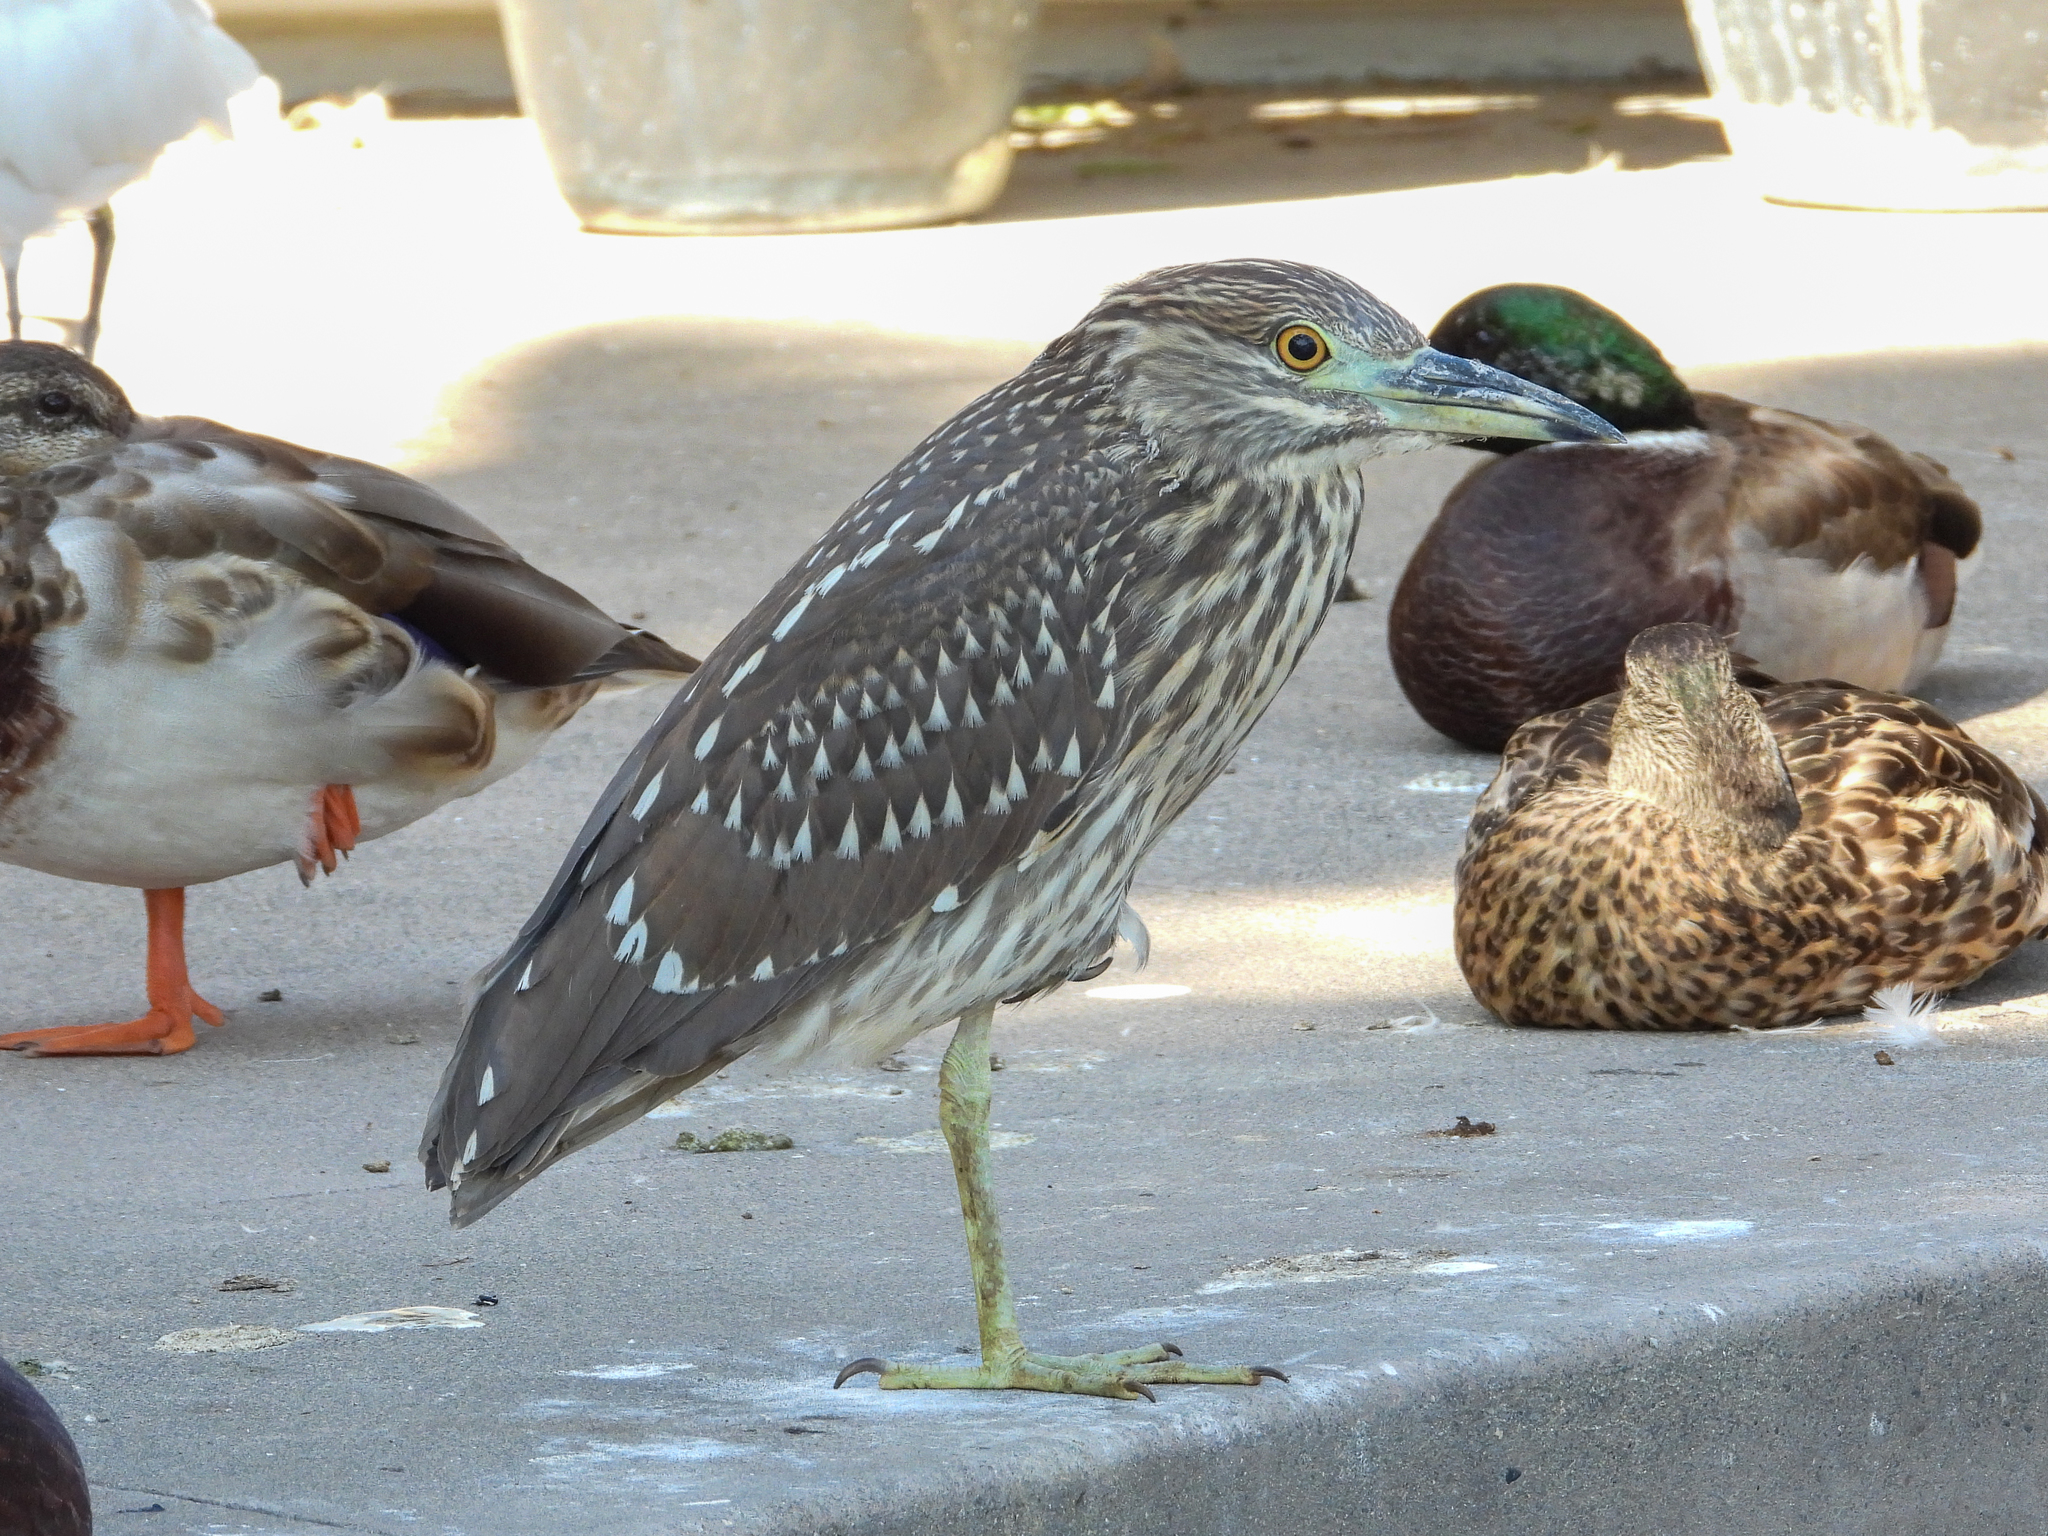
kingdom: Animalia
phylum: Chordata
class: Aves
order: Pelecaniformes
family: Ardeidae
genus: Nycticorax
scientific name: Nycticorax nycticorax
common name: Black-crowned night heron
